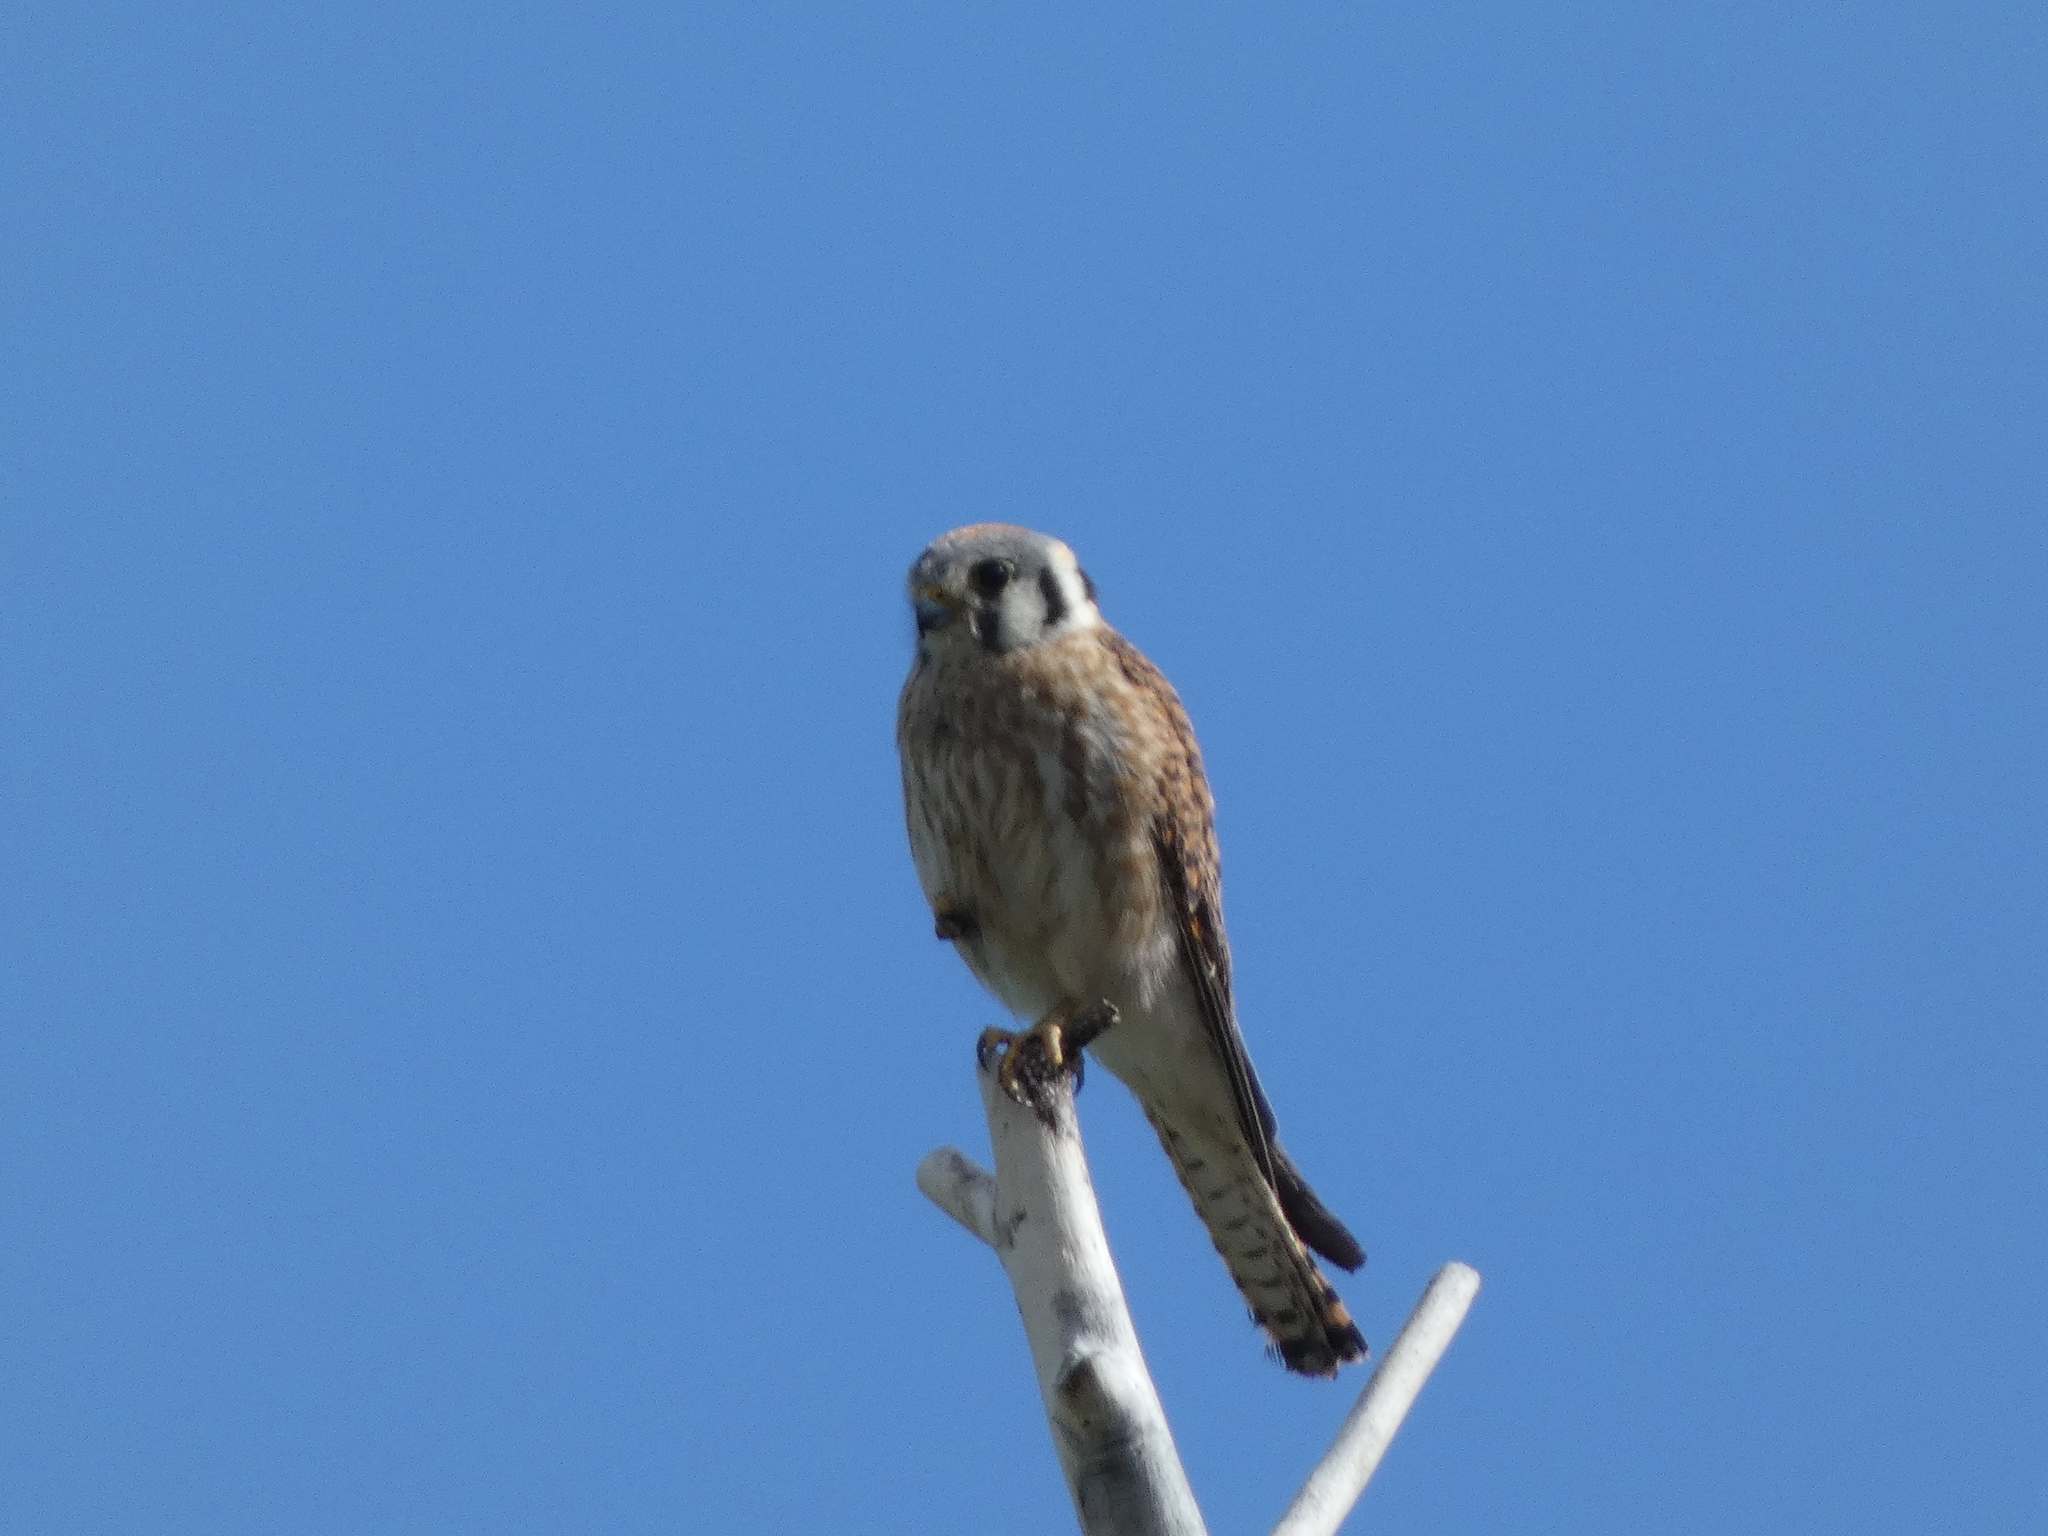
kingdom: Animalia
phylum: Chordata
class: Aves
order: Falconiformes
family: Falconidae
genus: Falco
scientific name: Falco sparverius
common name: American kestrel
